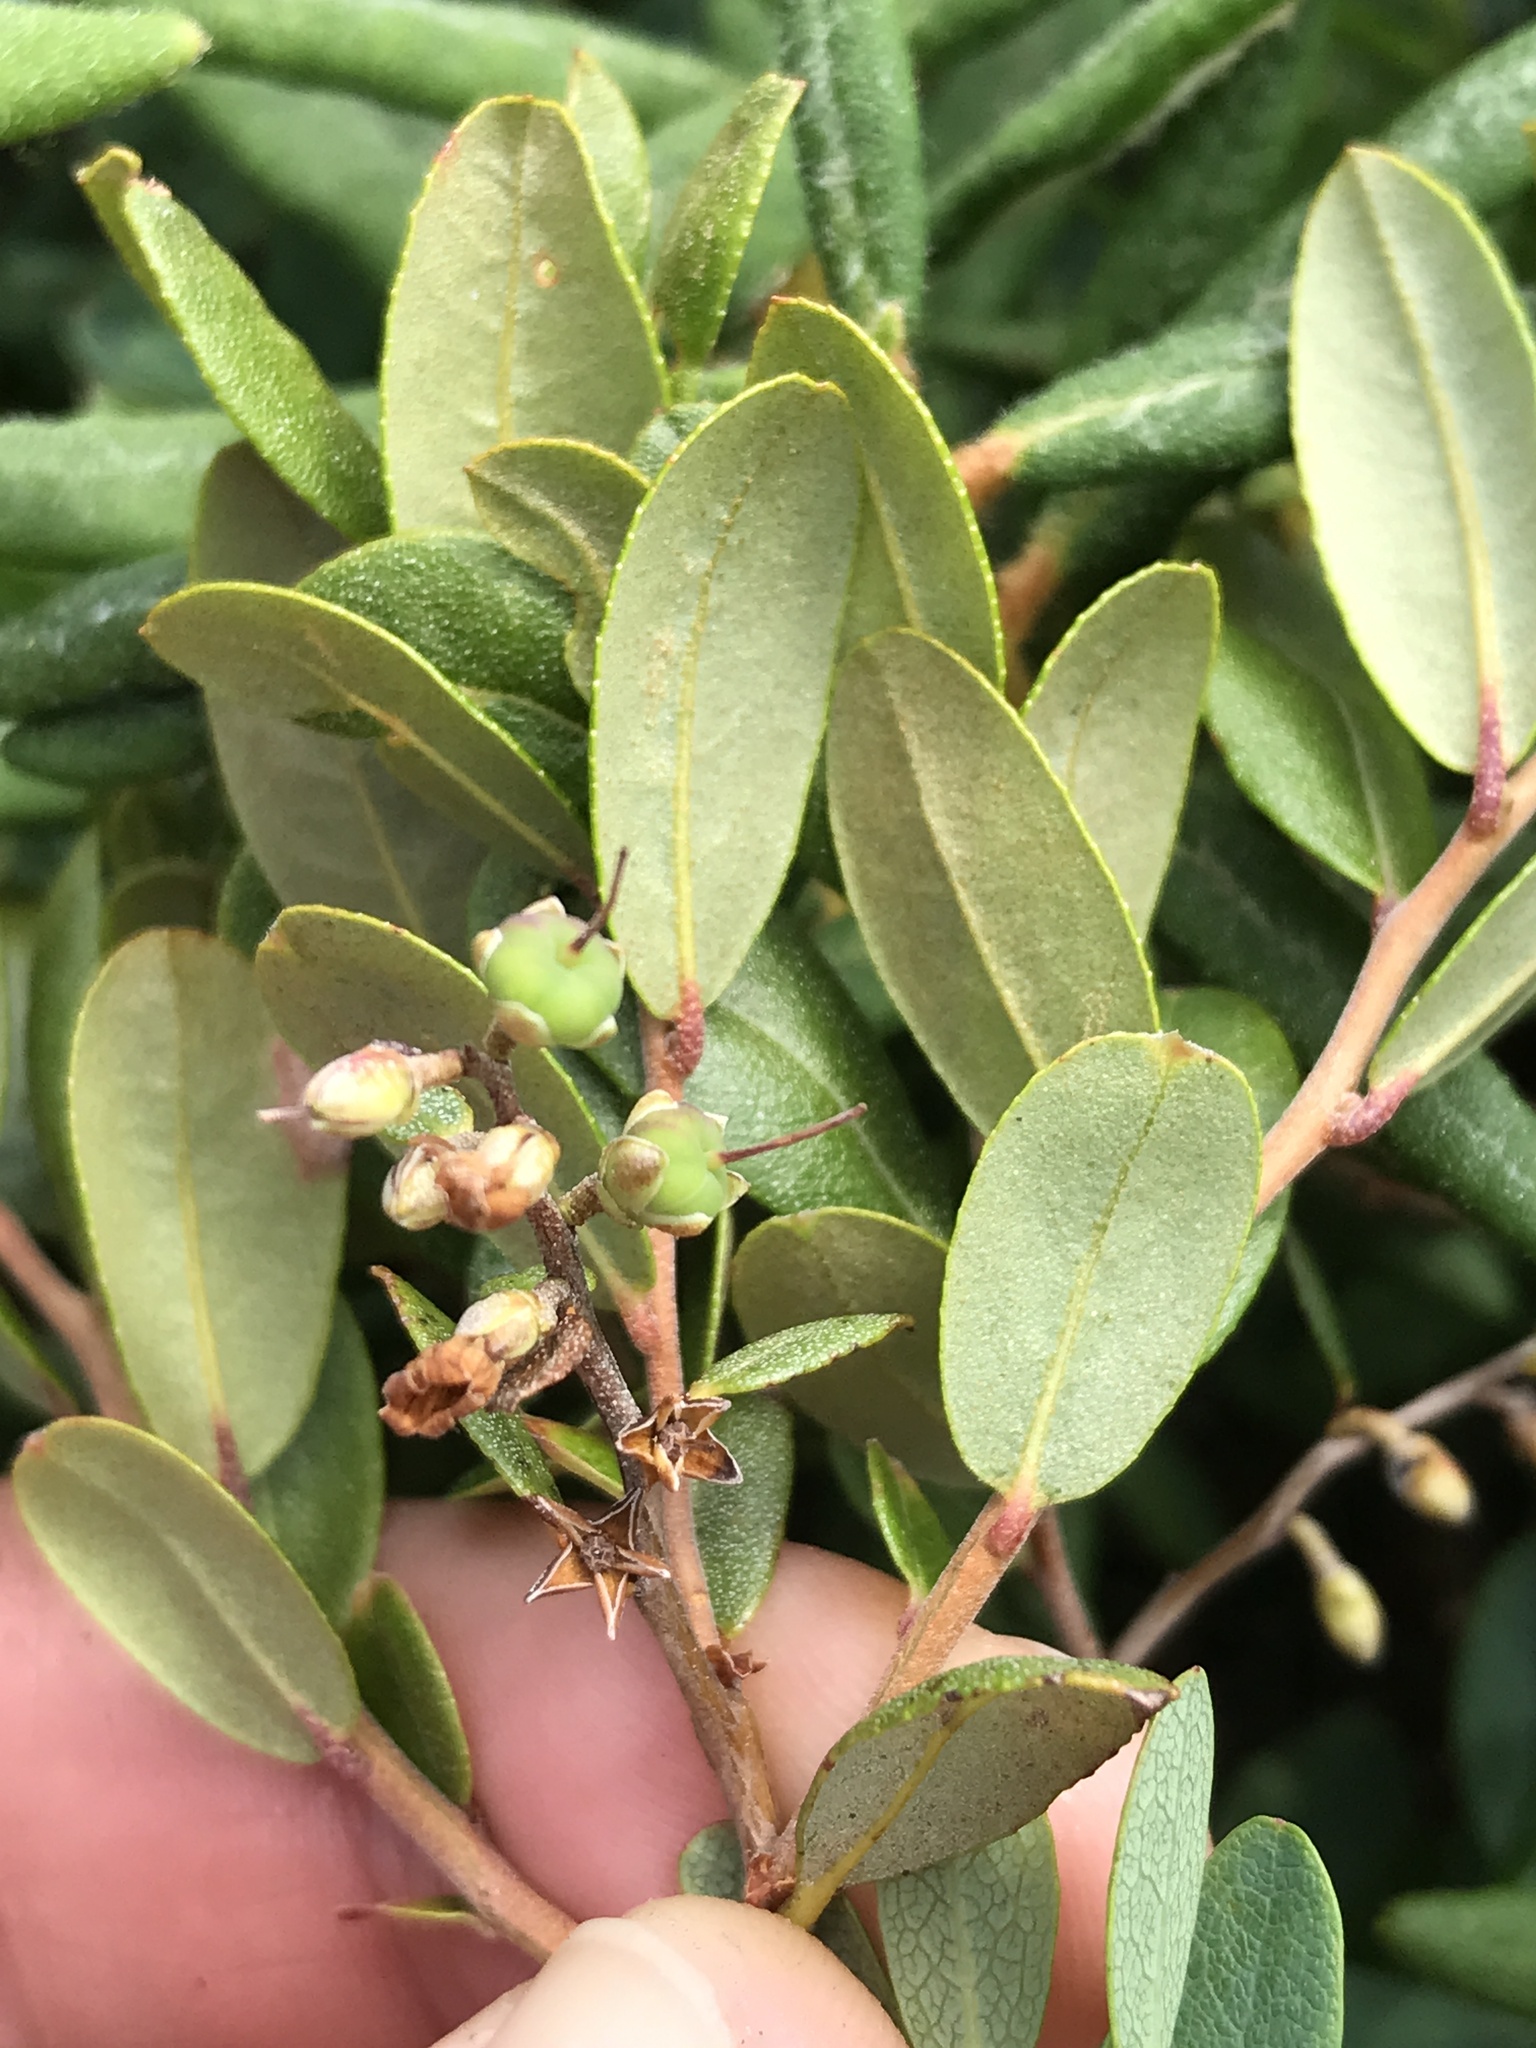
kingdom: Plantae
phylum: Tracheophyta
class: Magnoliopsida
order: Ericales
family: Ericaceae
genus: Chamaedaphne
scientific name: Chamaedaphne calyculata
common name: Leatherleaf
